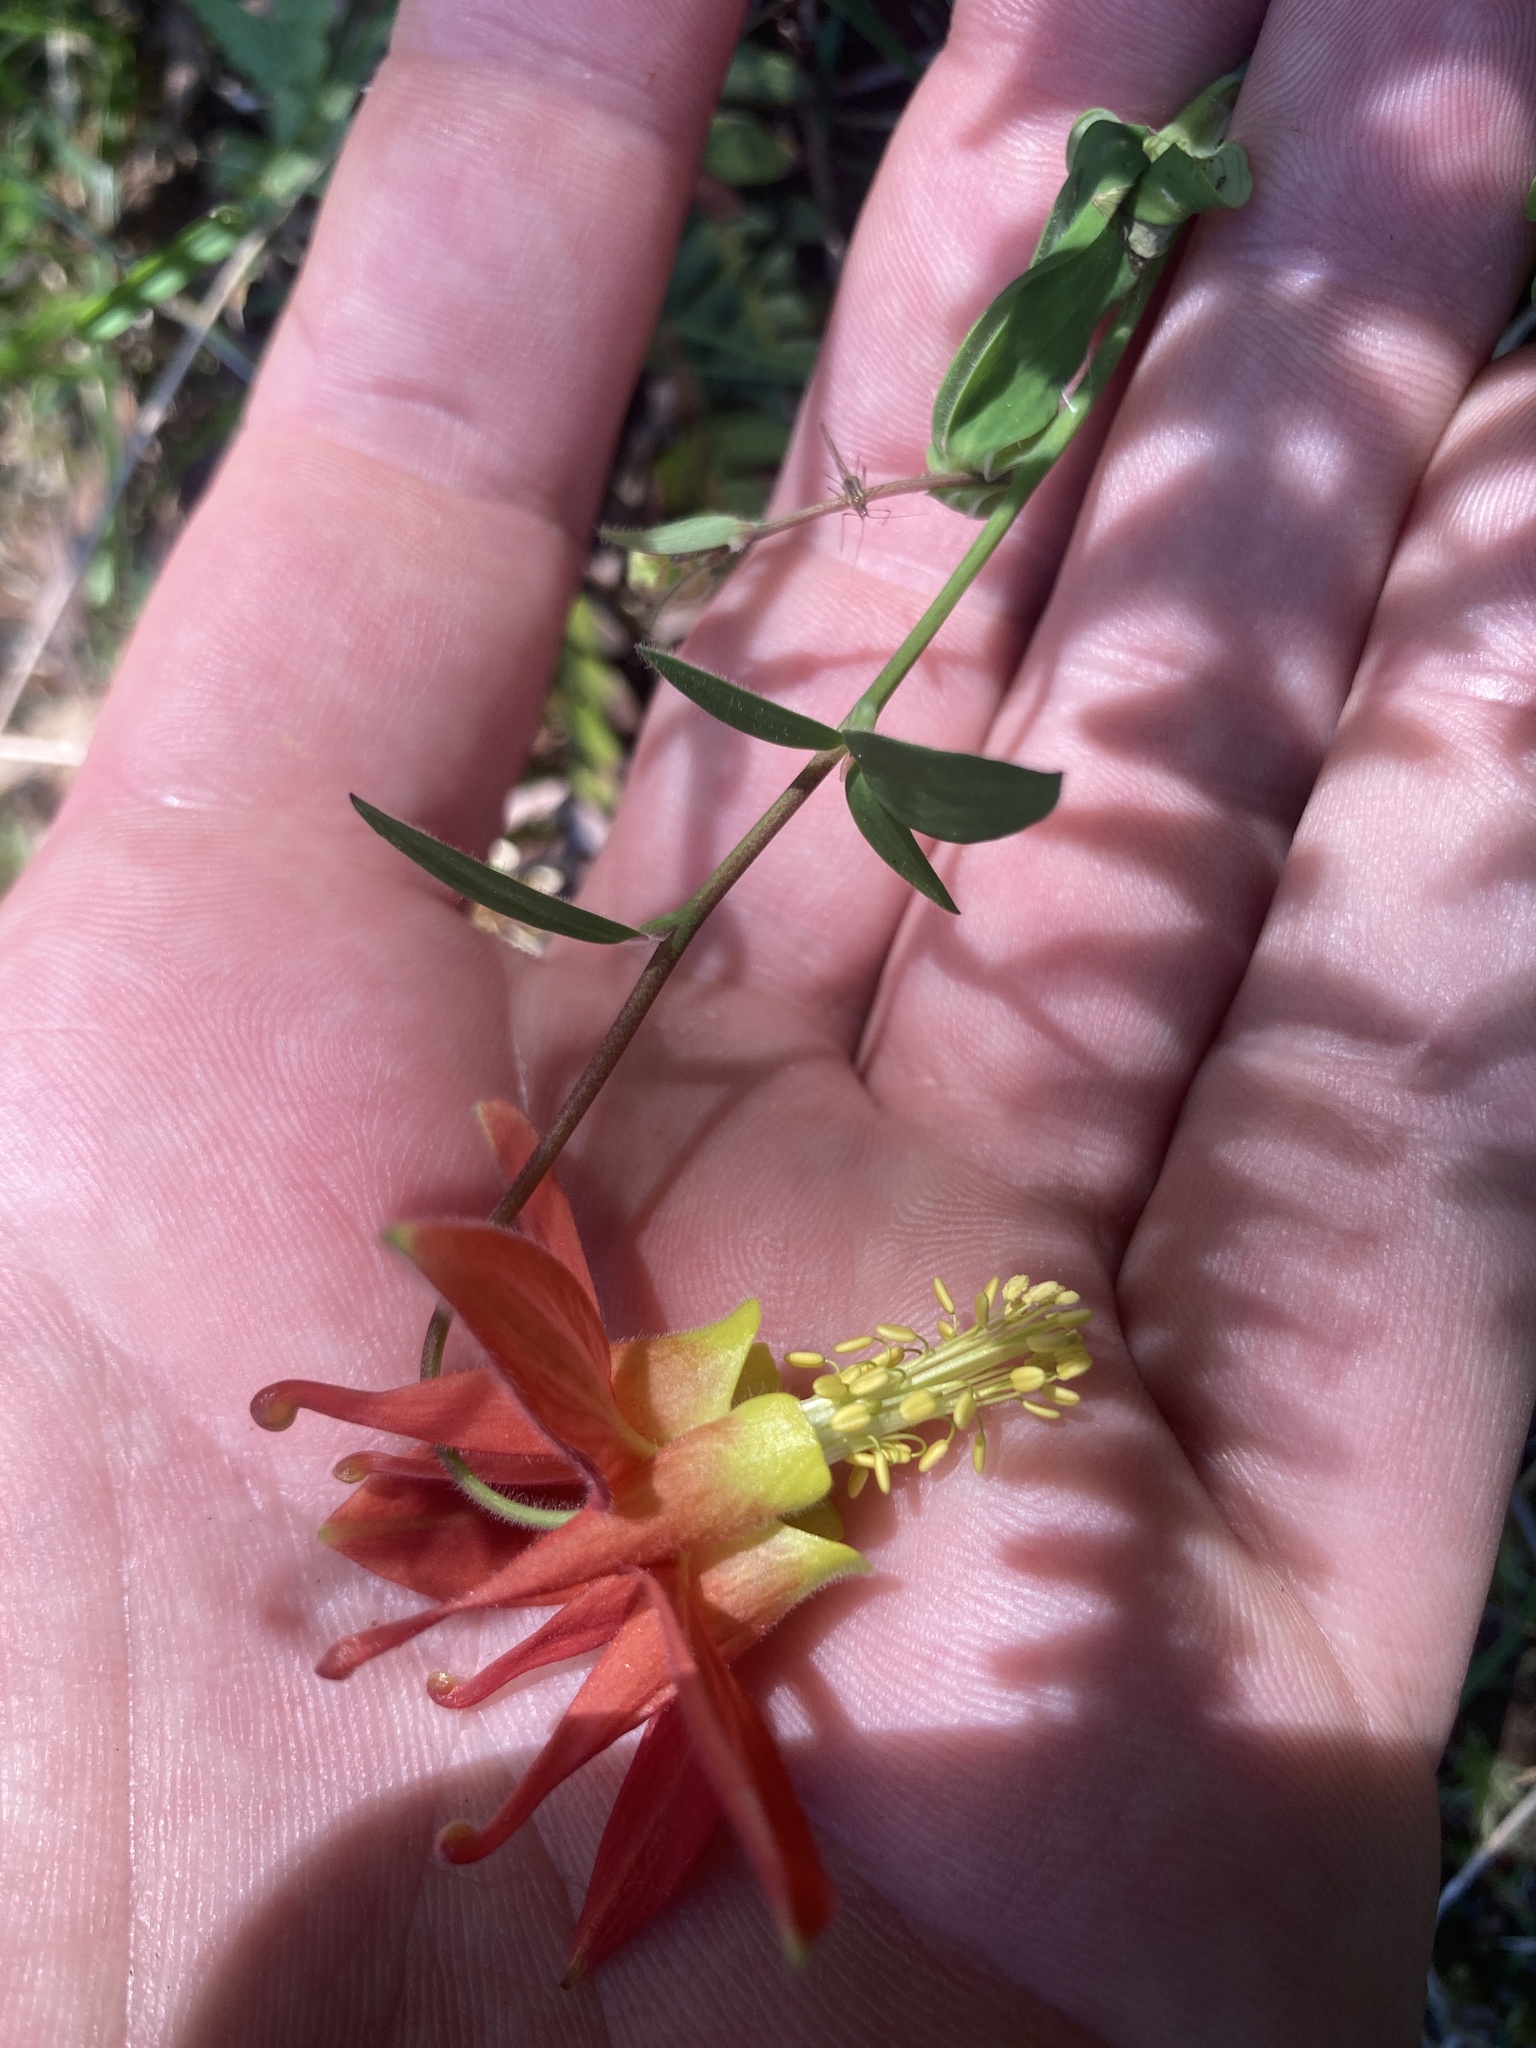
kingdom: Plantae
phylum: Tracheophyta
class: Magnoliopsida
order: Ranunculales
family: Ranunculaceae
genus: Aquilegia
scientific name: Aquilegia formosa
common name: Sitka columbine
